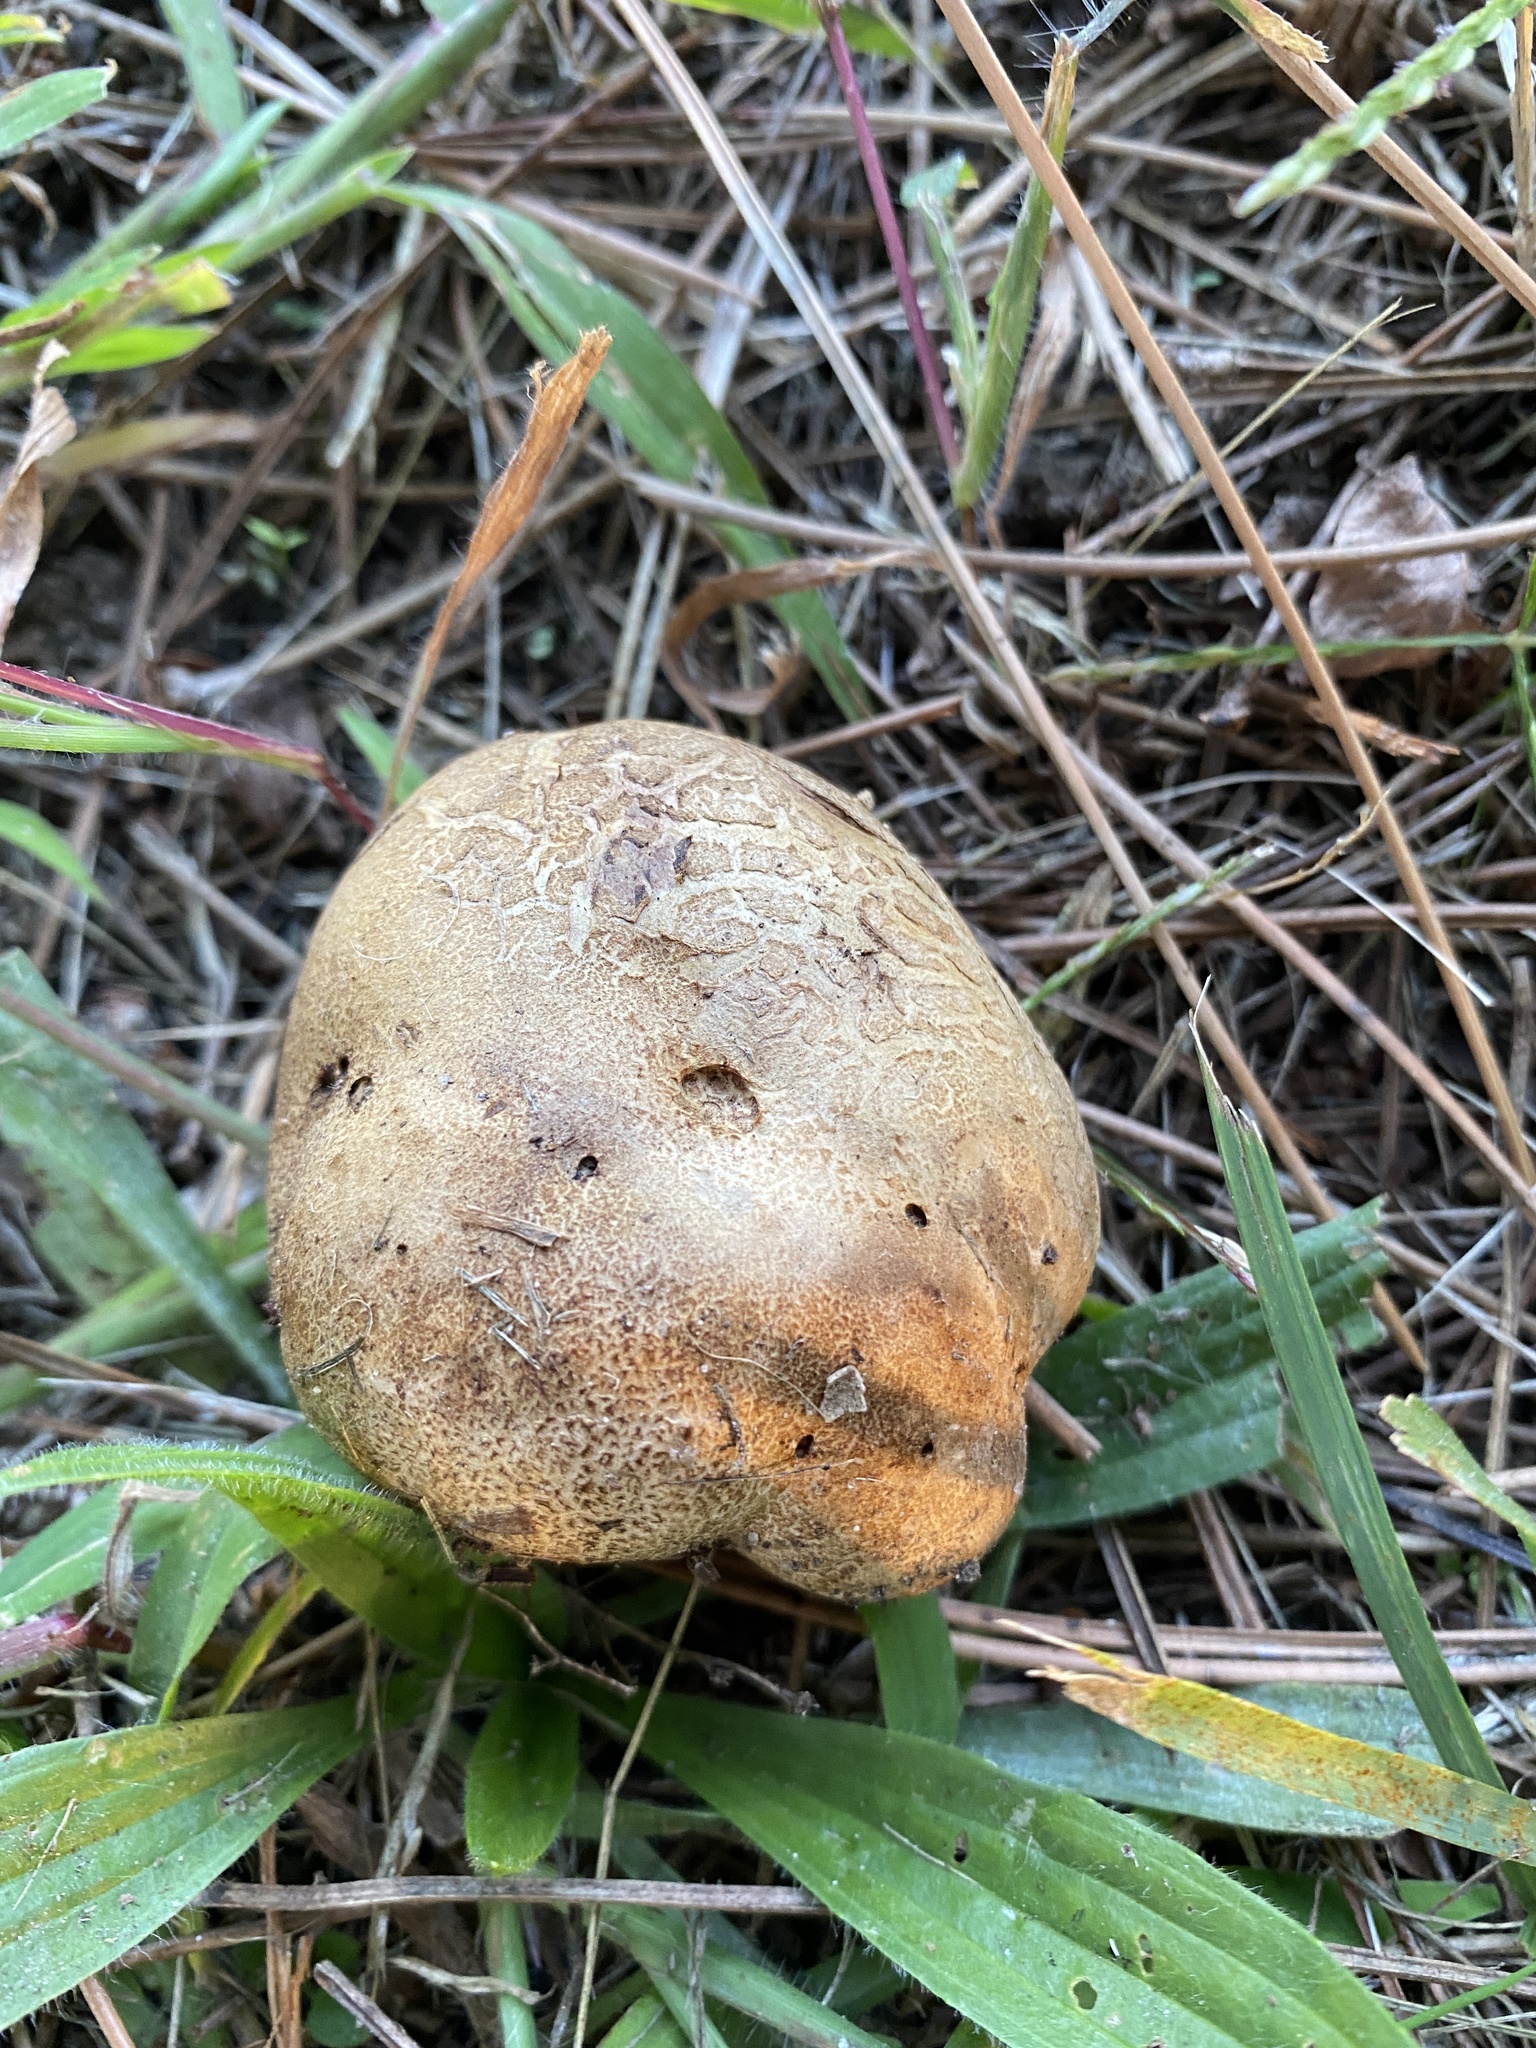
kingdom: Fungi
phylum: Basidiomycota
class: Agaricomycetes
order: Boletales
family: Sclerodermataceae
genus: Scleroderma
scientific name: Scleroderma citrinum
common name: Common earthball
